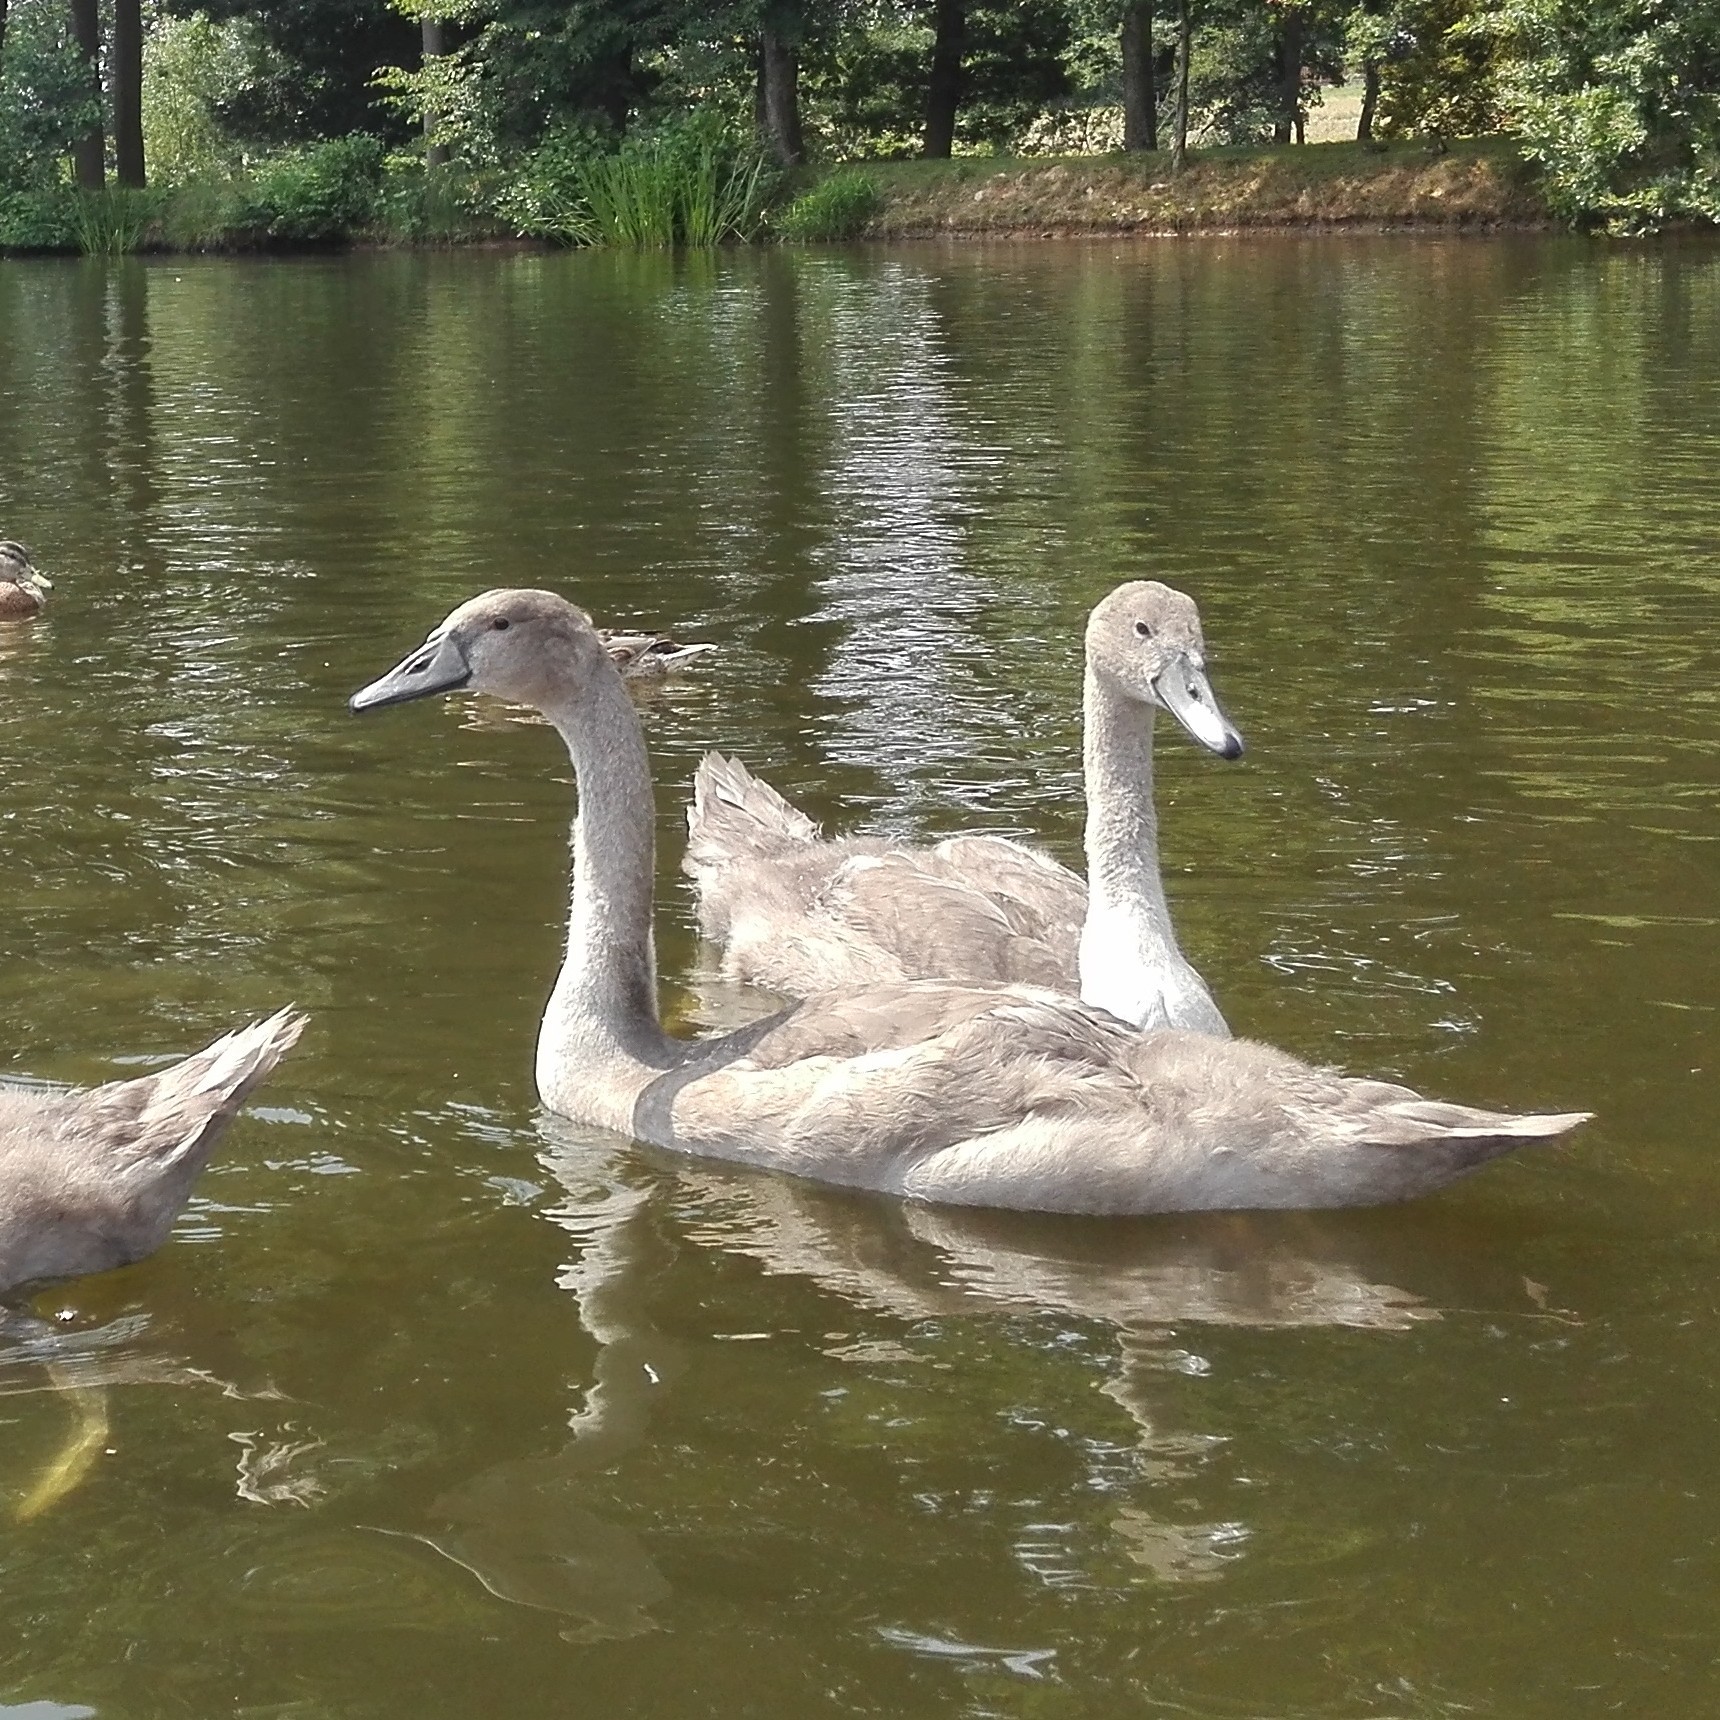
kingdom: Animalia
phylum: Chordata
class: Aves
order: Anseriformes
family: Anatidae
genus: Cygnus
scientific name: Cygnus olor
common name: Mute swan
